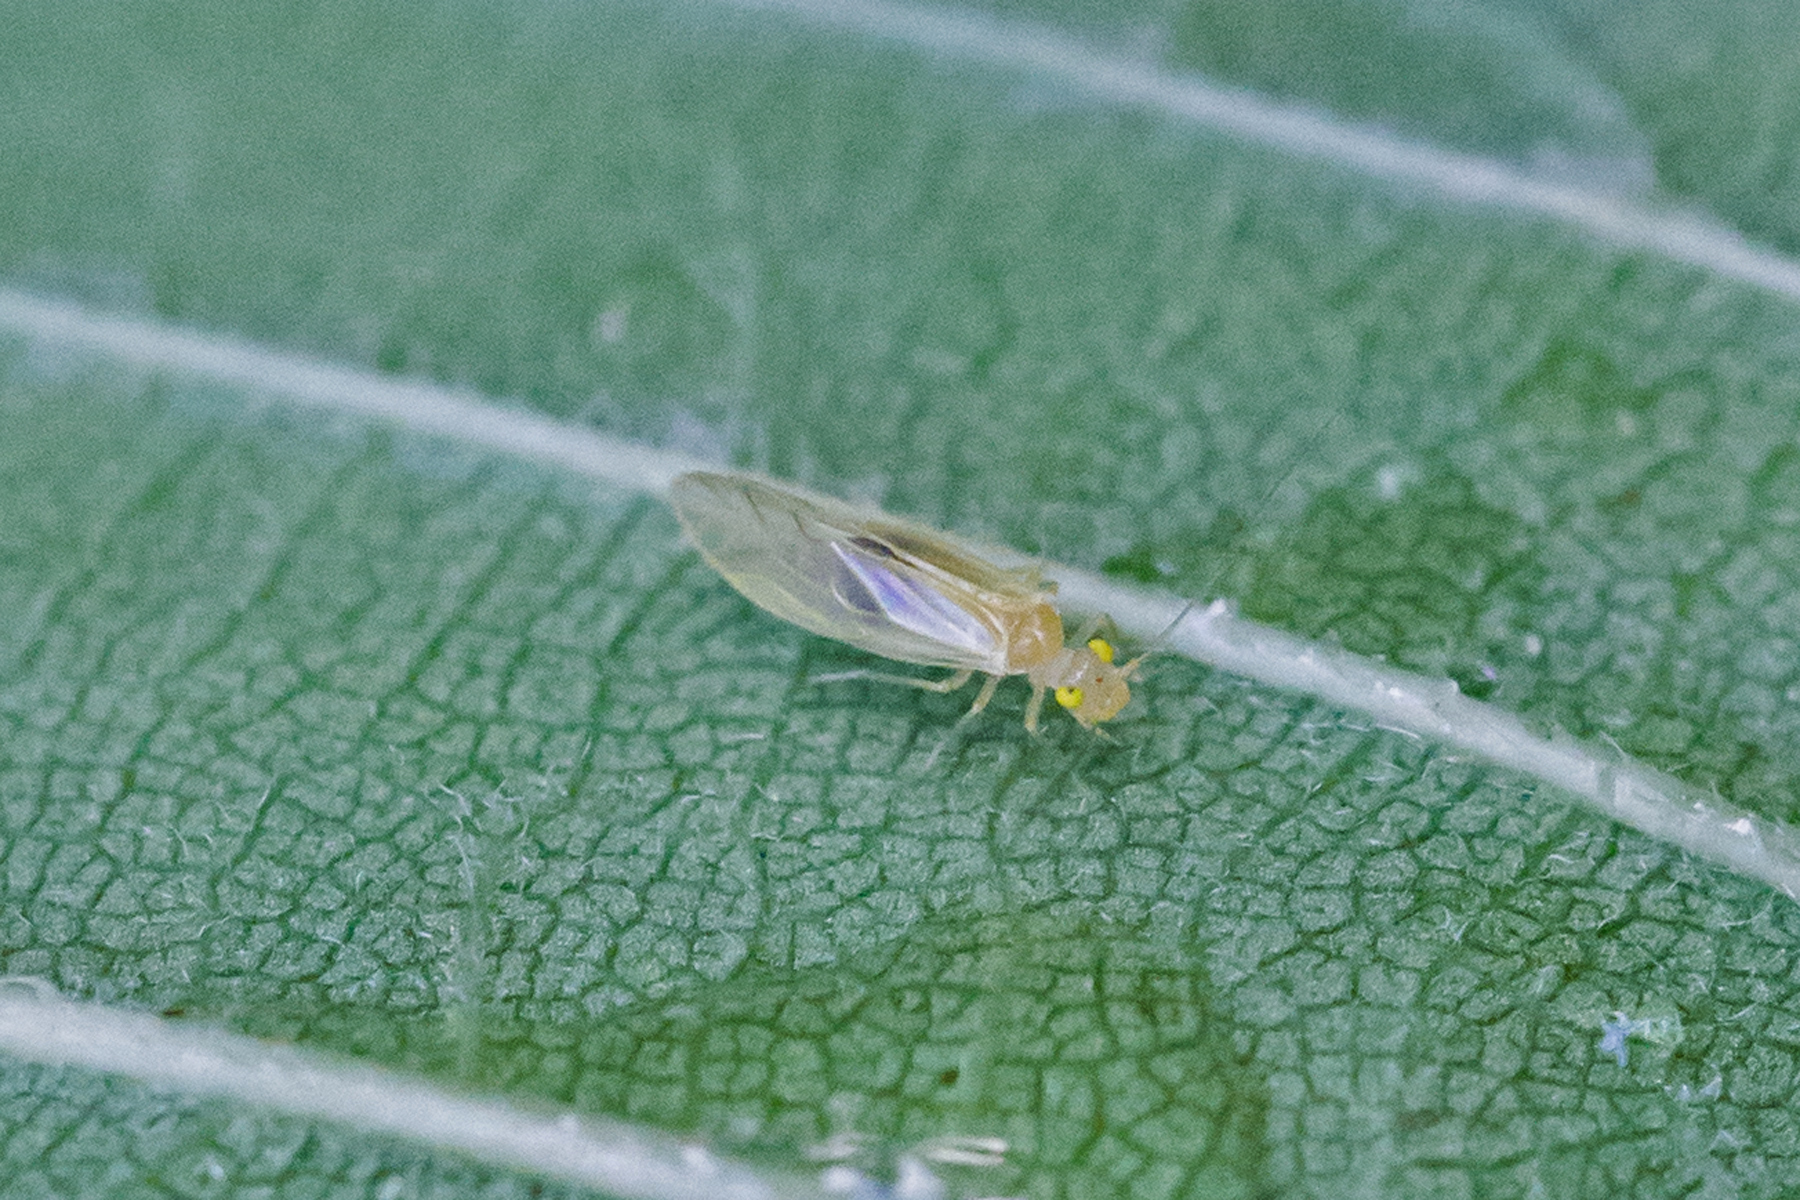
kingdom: Animalia
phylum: Arthropoda
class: Insecta
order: Psocodea
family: Paracaeciliidae
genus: Xanthocaecilius
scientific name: Xanthocaecilius sommermanae
